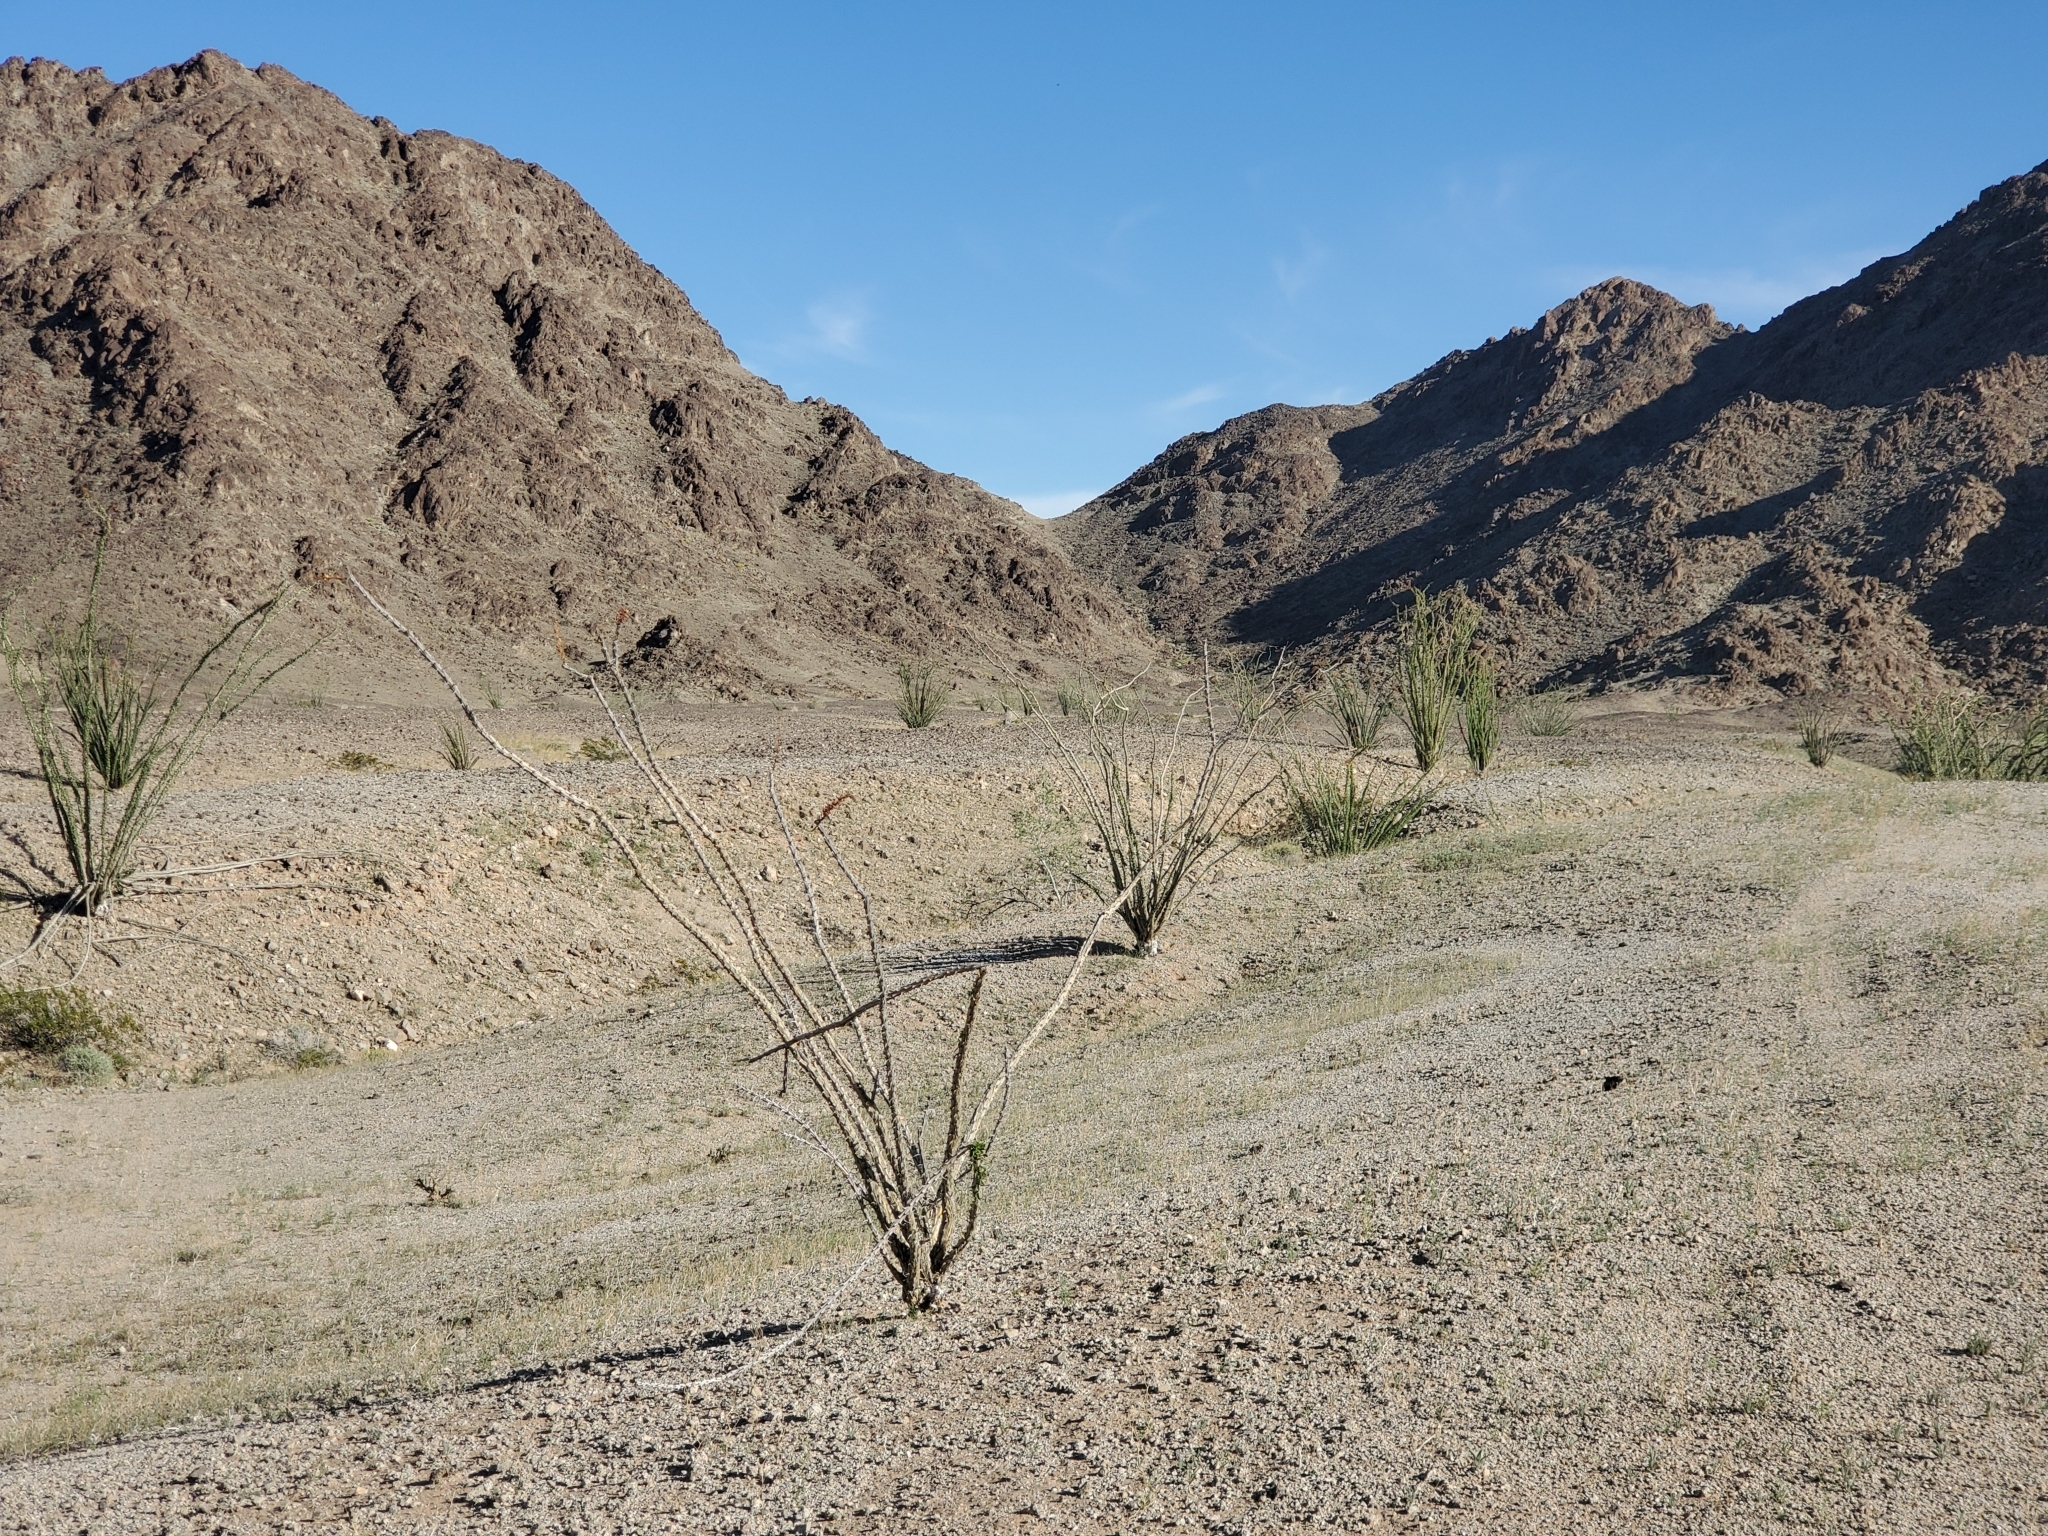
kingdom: Plantae
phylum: Tracheophyta
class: Magnoliopsida
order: Ericales
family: Fouquieriaceae
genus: Fouquieria
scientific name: Fouquieria splendens
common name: Vine-cactus
